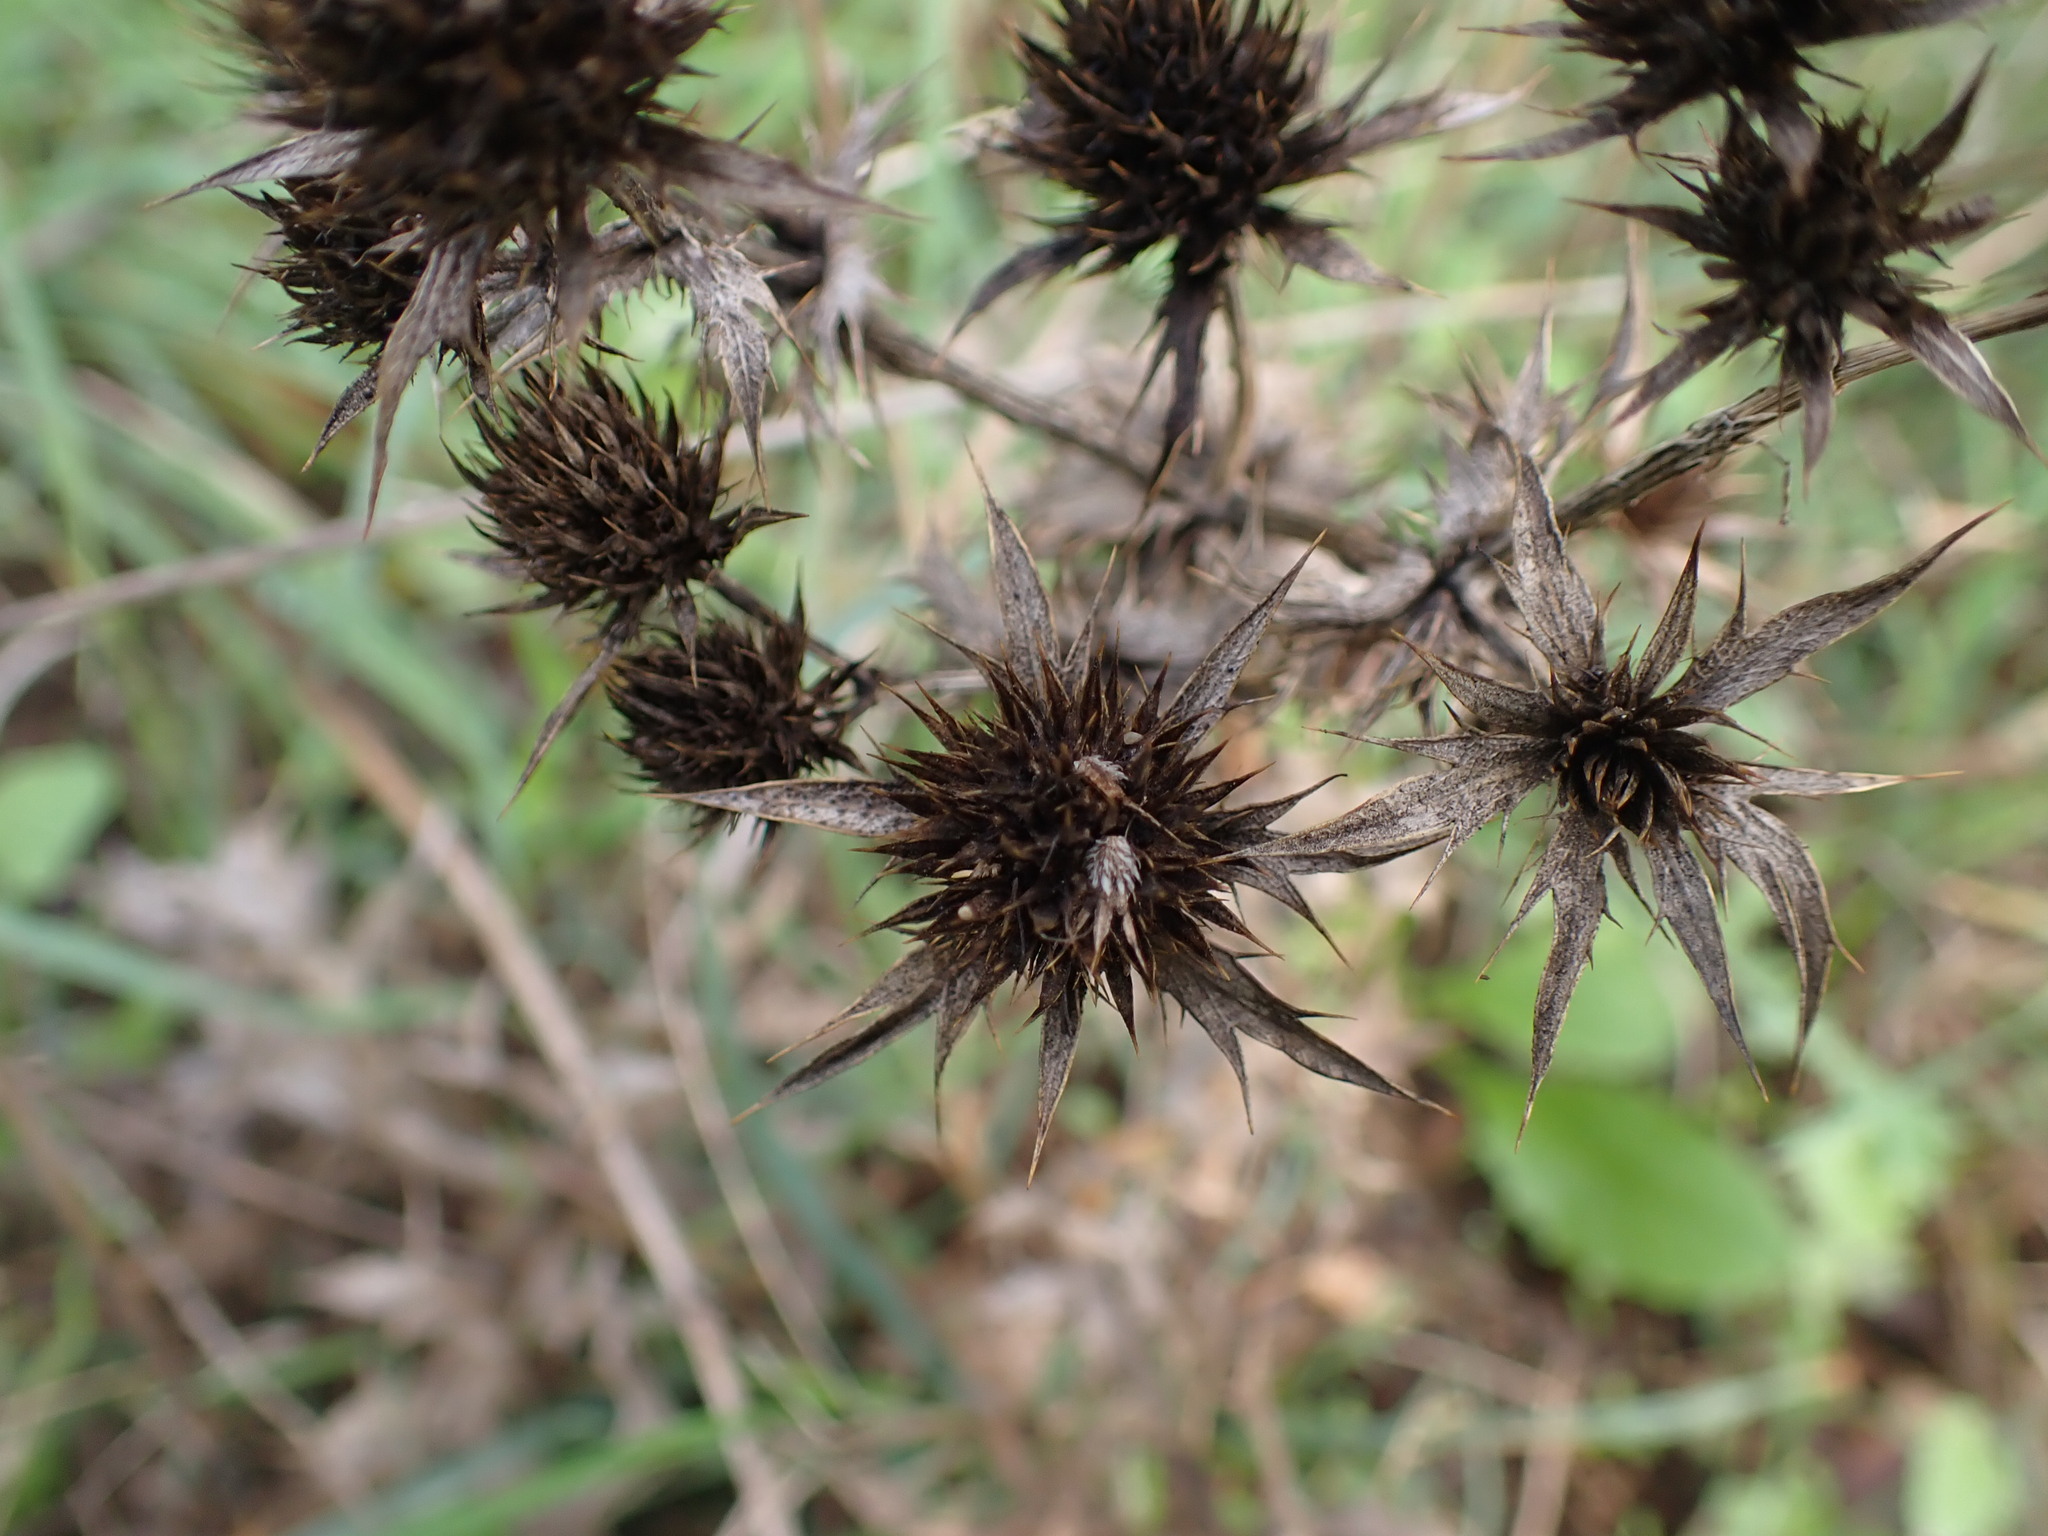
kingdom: Plantae
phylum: Tracheophyta
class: Magnoliopsida
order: Apiales
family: Apiaceae
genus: Eryngium
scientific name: Eryngium campestre
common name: Field eryngo
